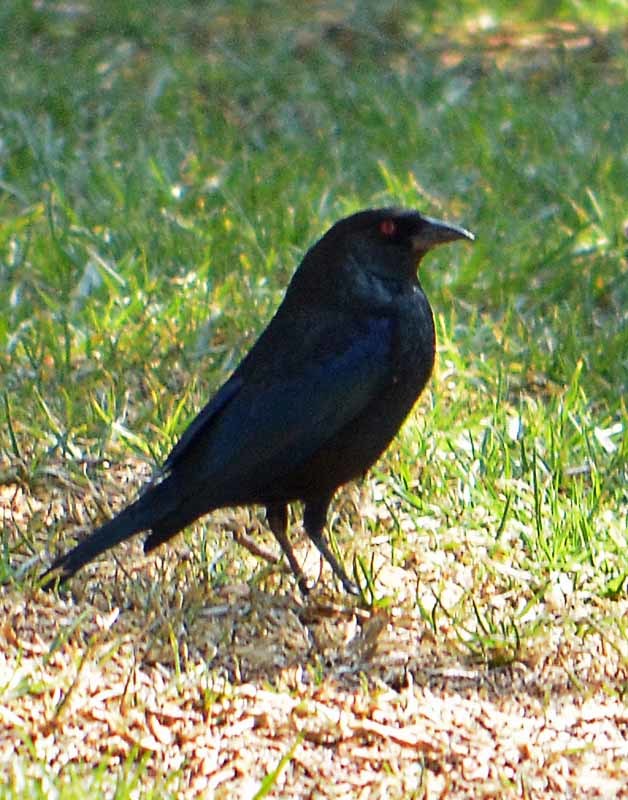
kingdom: Animalia
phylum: Chordata
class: Aves
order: Passeriformes
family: Icteridae
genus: Molothrus
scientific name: Molothrus aeneus
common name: Bronzed cowbird
